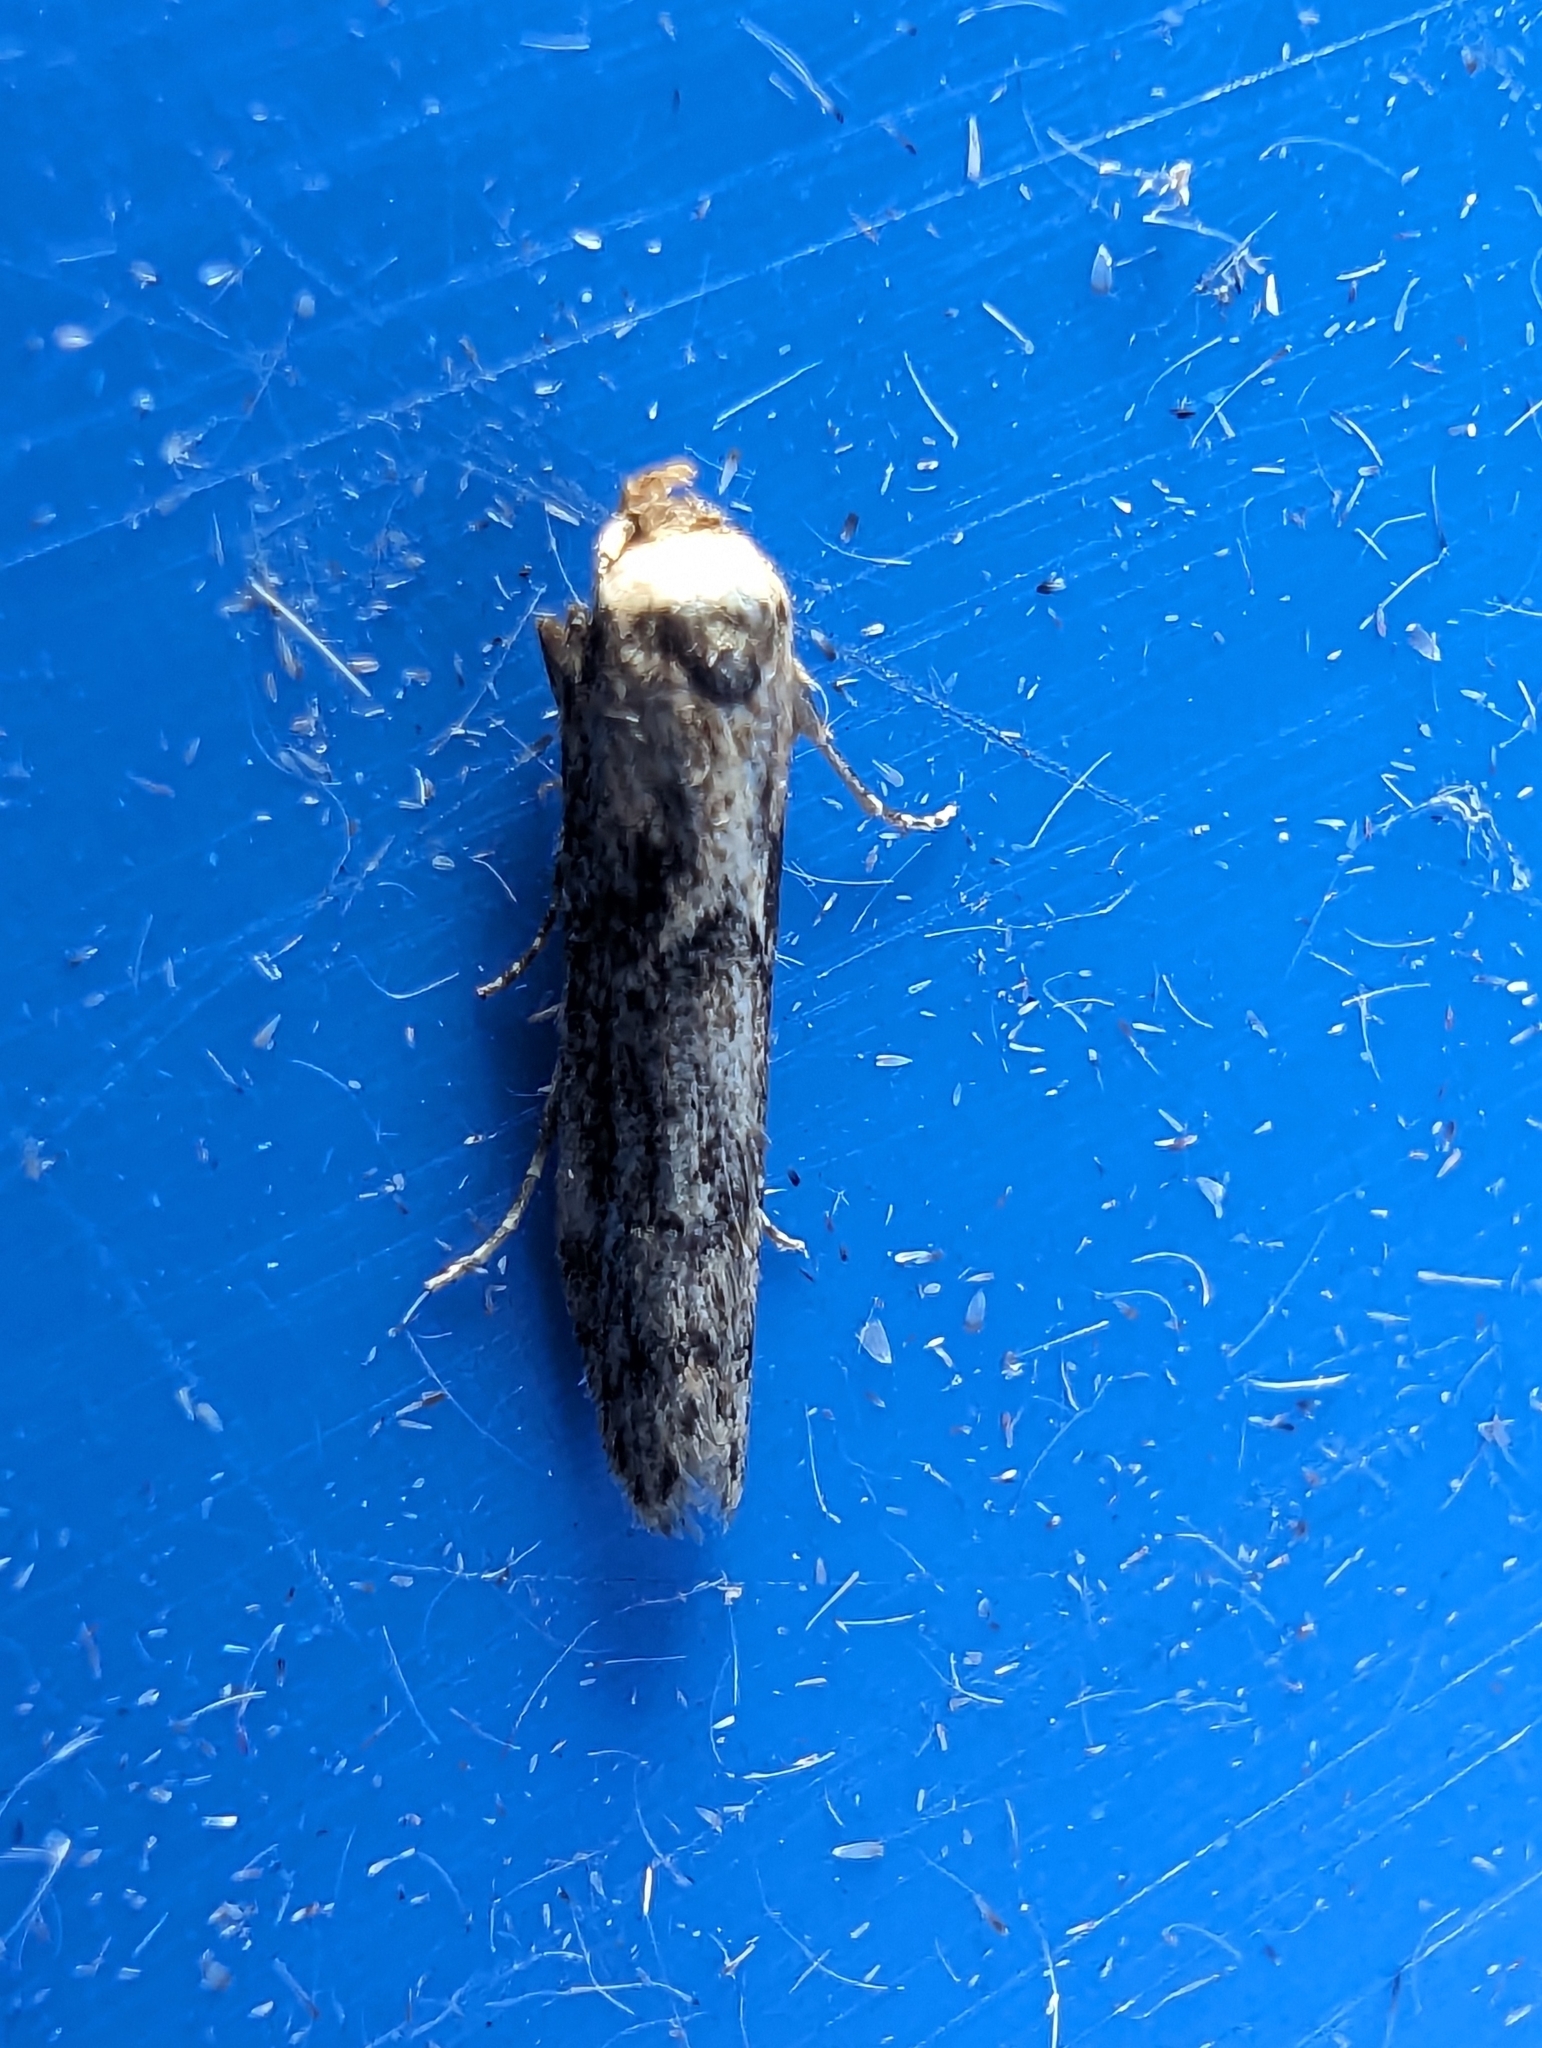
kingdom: Animalia
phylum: Arthropoda
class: Insecta
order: Lepidoptera
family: Blastobasidae
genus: Blastobasis
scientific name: Blastobasis adustella
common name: Dingy dowd
